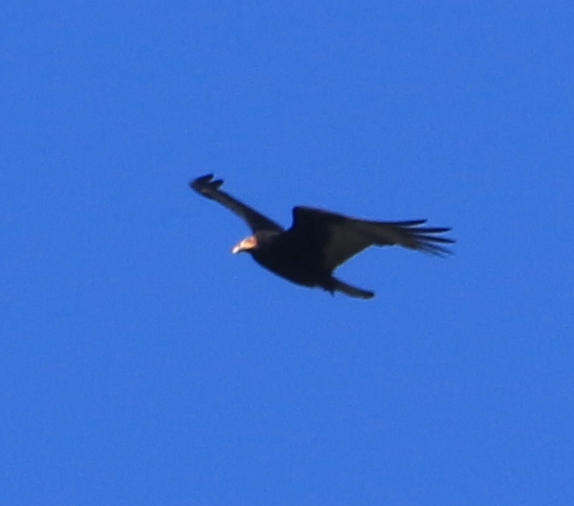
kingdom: Animalia
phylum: Chordata
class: Aves
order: Accipitriformes
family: Cathartidae
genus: Cathartes
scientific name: Cathartes burrovianus
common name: Lesser yellow-headed vulture
